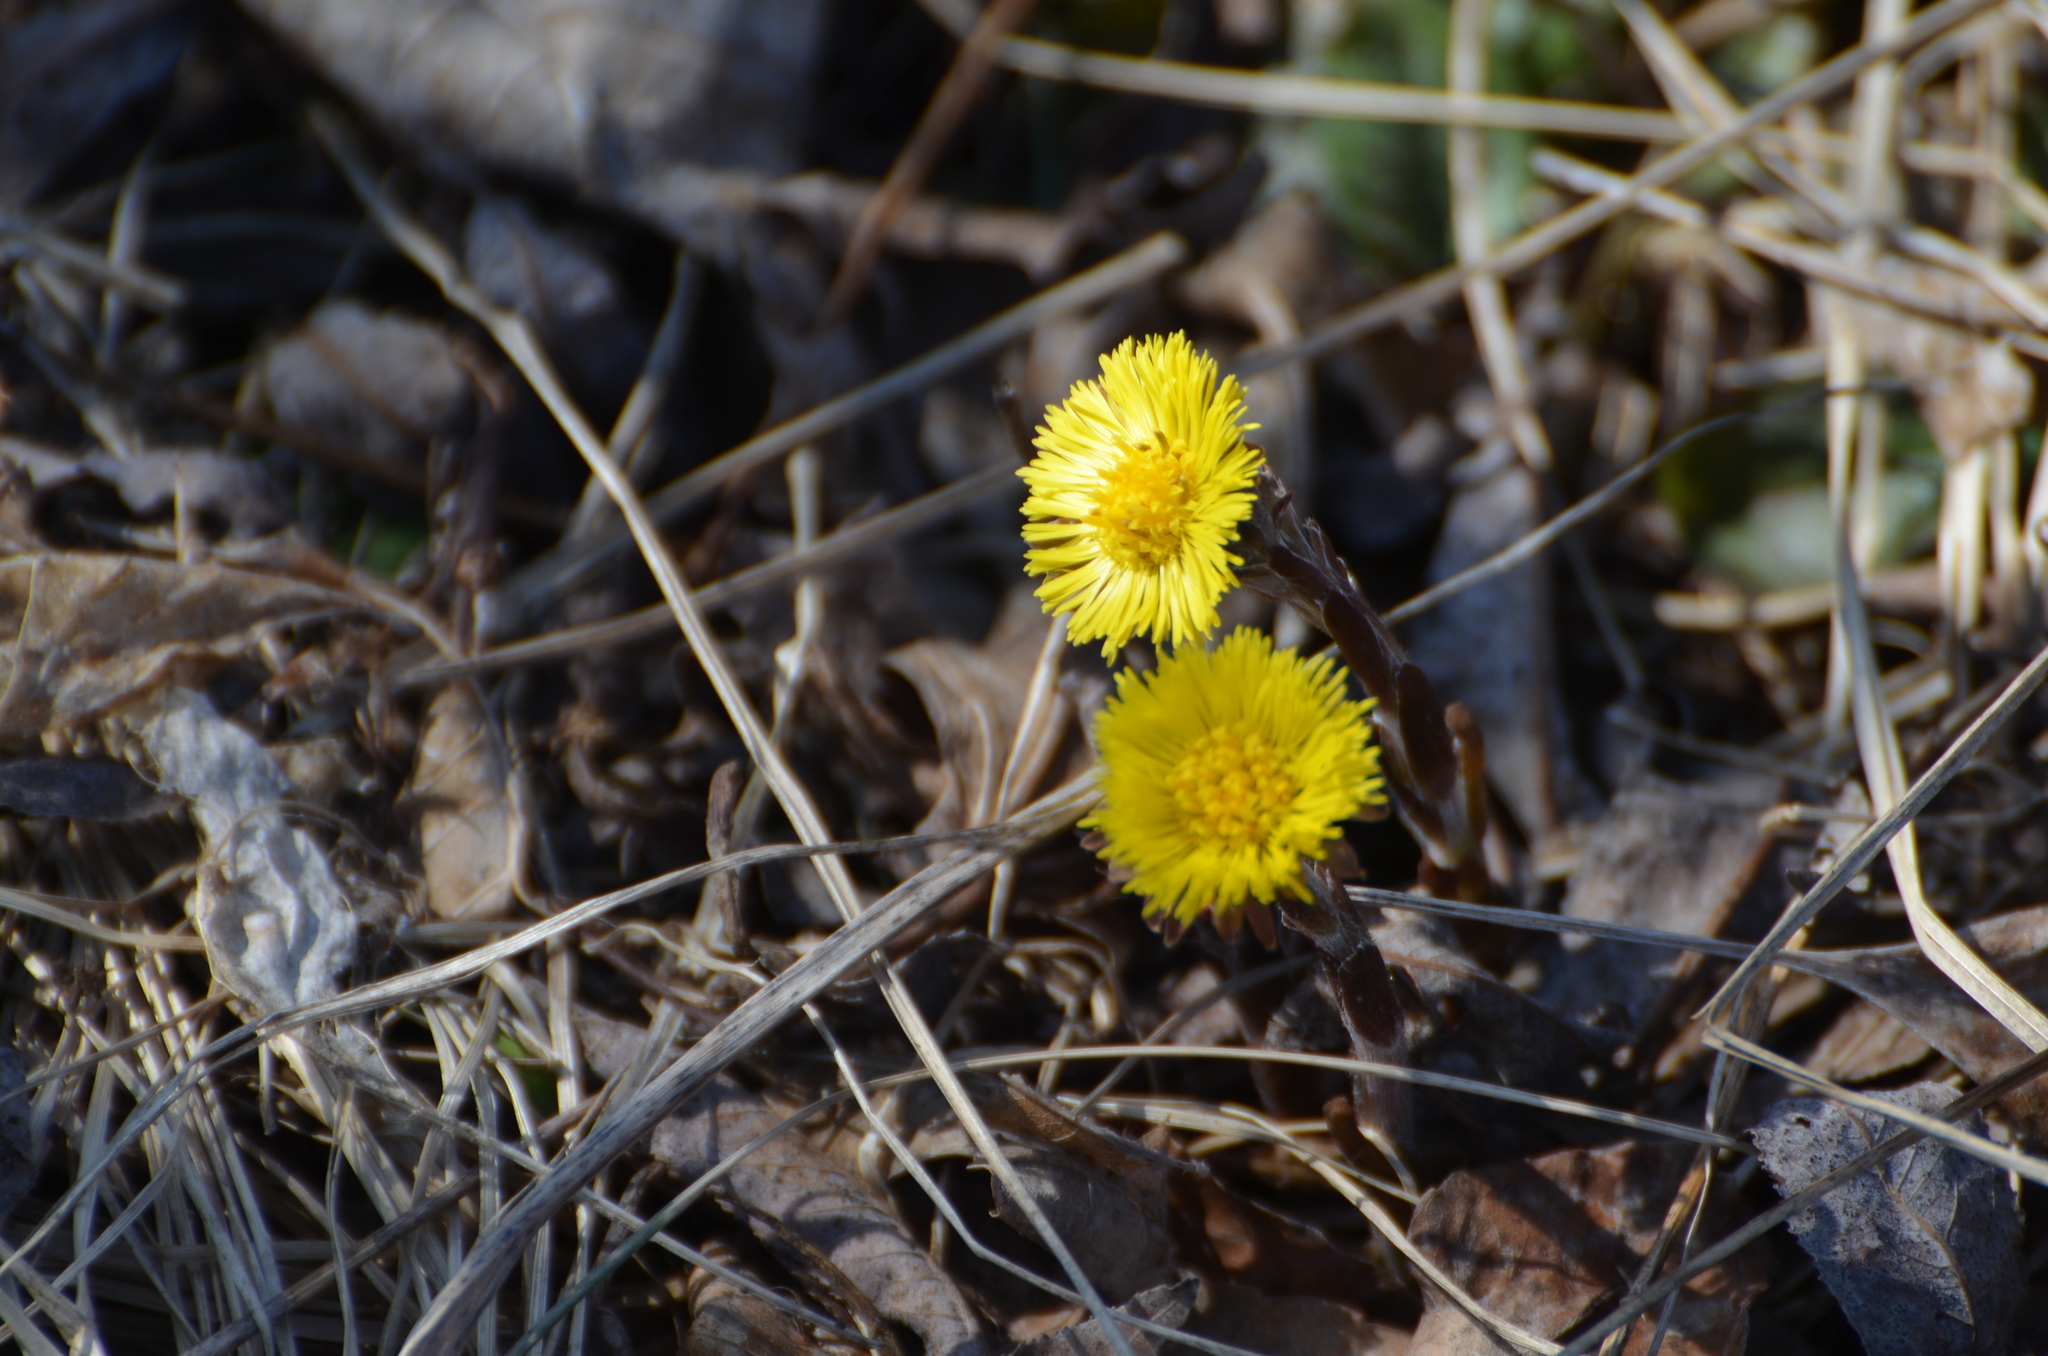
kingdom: Plantae
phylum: Tracheophyta
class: Magnoliopsida
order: Asterales
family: Asteraceae
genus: Tussilago
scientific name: Tussilago farfara
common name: Coltsfoot
